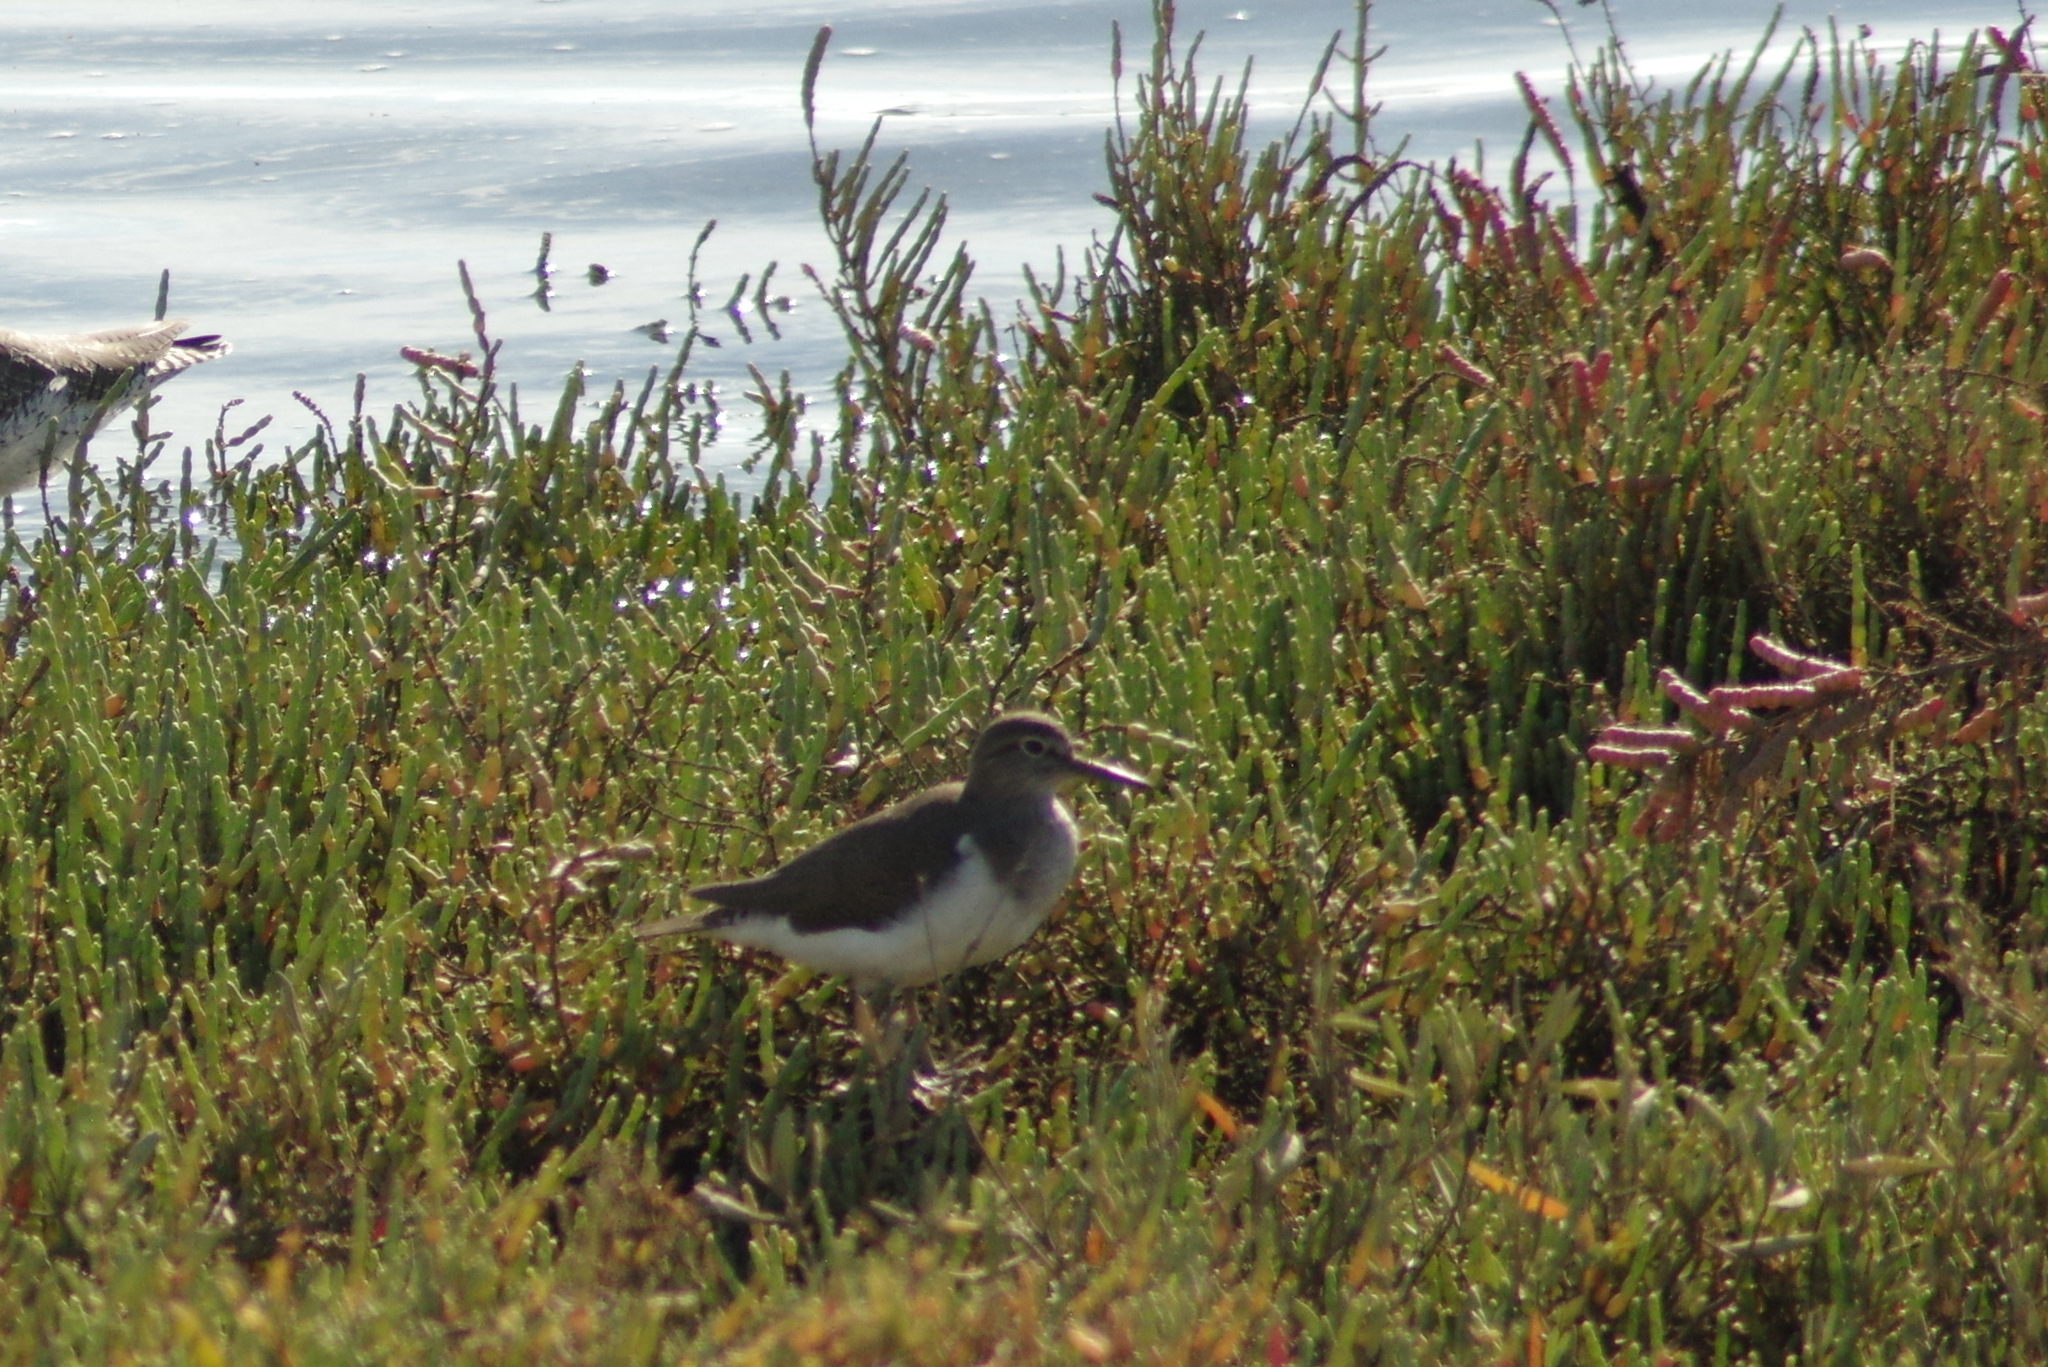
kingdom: Animalia
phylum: Chordata
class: Aves
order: Charadriiformes
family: Scolopacidae
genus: Actitis
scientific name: Actitis hypoleucos
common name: Common sandpiper
